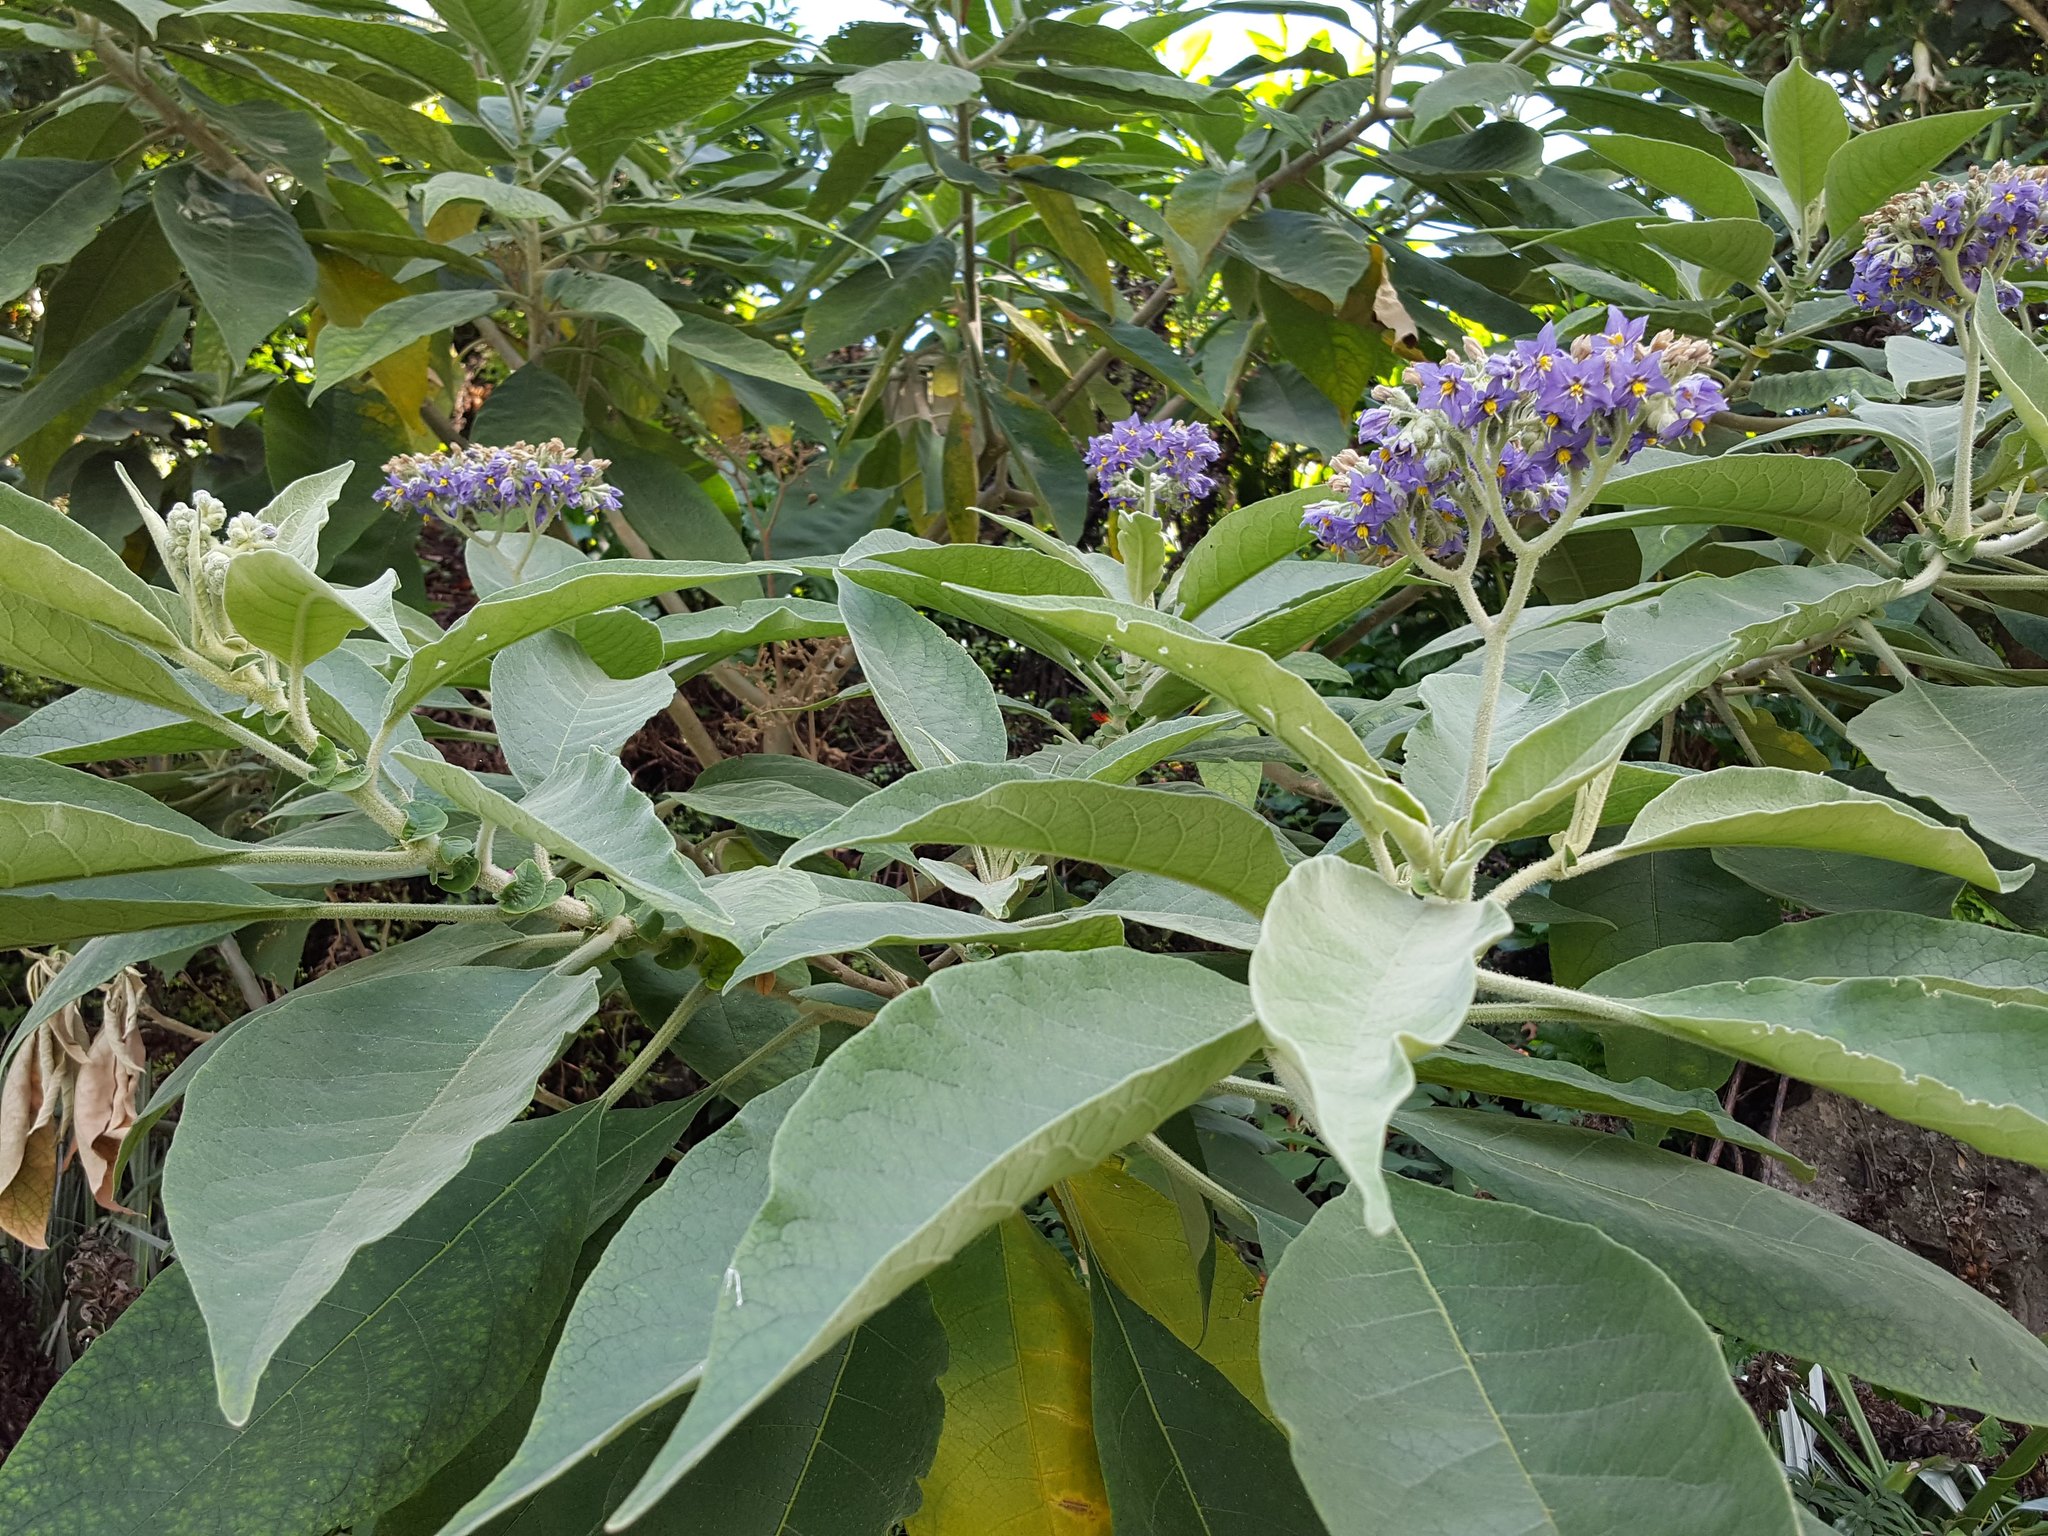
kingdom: Plantae
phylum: Tracheophyta
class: Magnoliopsida
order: Solanales
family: Solanaceae
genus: Solanum
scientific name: Solanum mauritianum
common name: Earleaf nightshade
